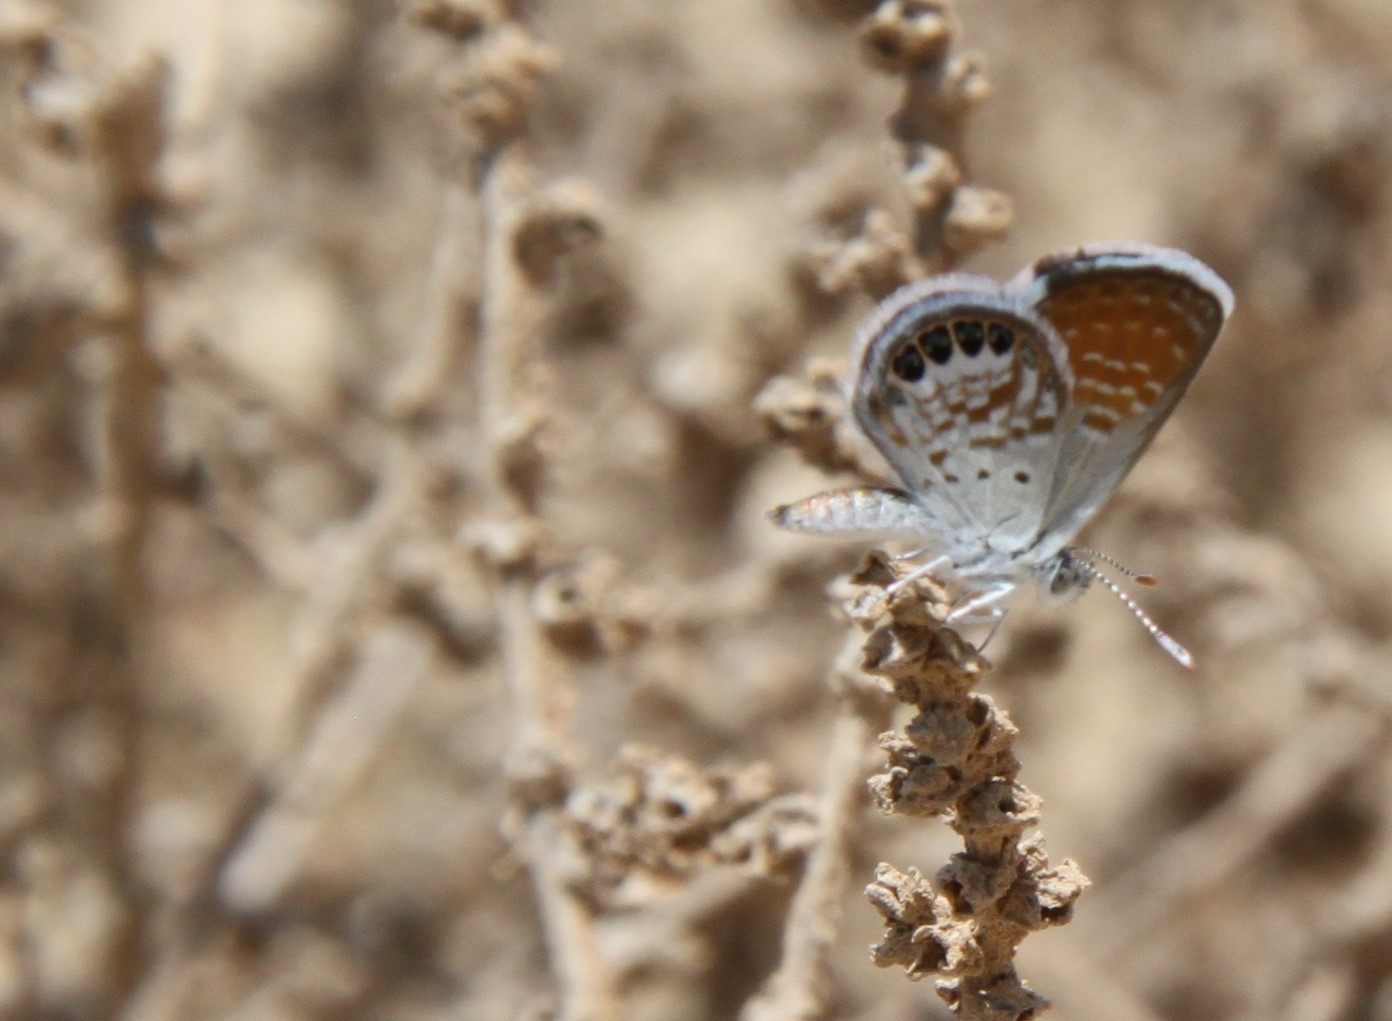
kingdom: Animalia
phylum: Arthropoda
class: Insecta
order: Lepidoptera
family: Lycaenidae
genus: Brephidium
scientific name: Brephidium exilis
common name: Pygmy blue
